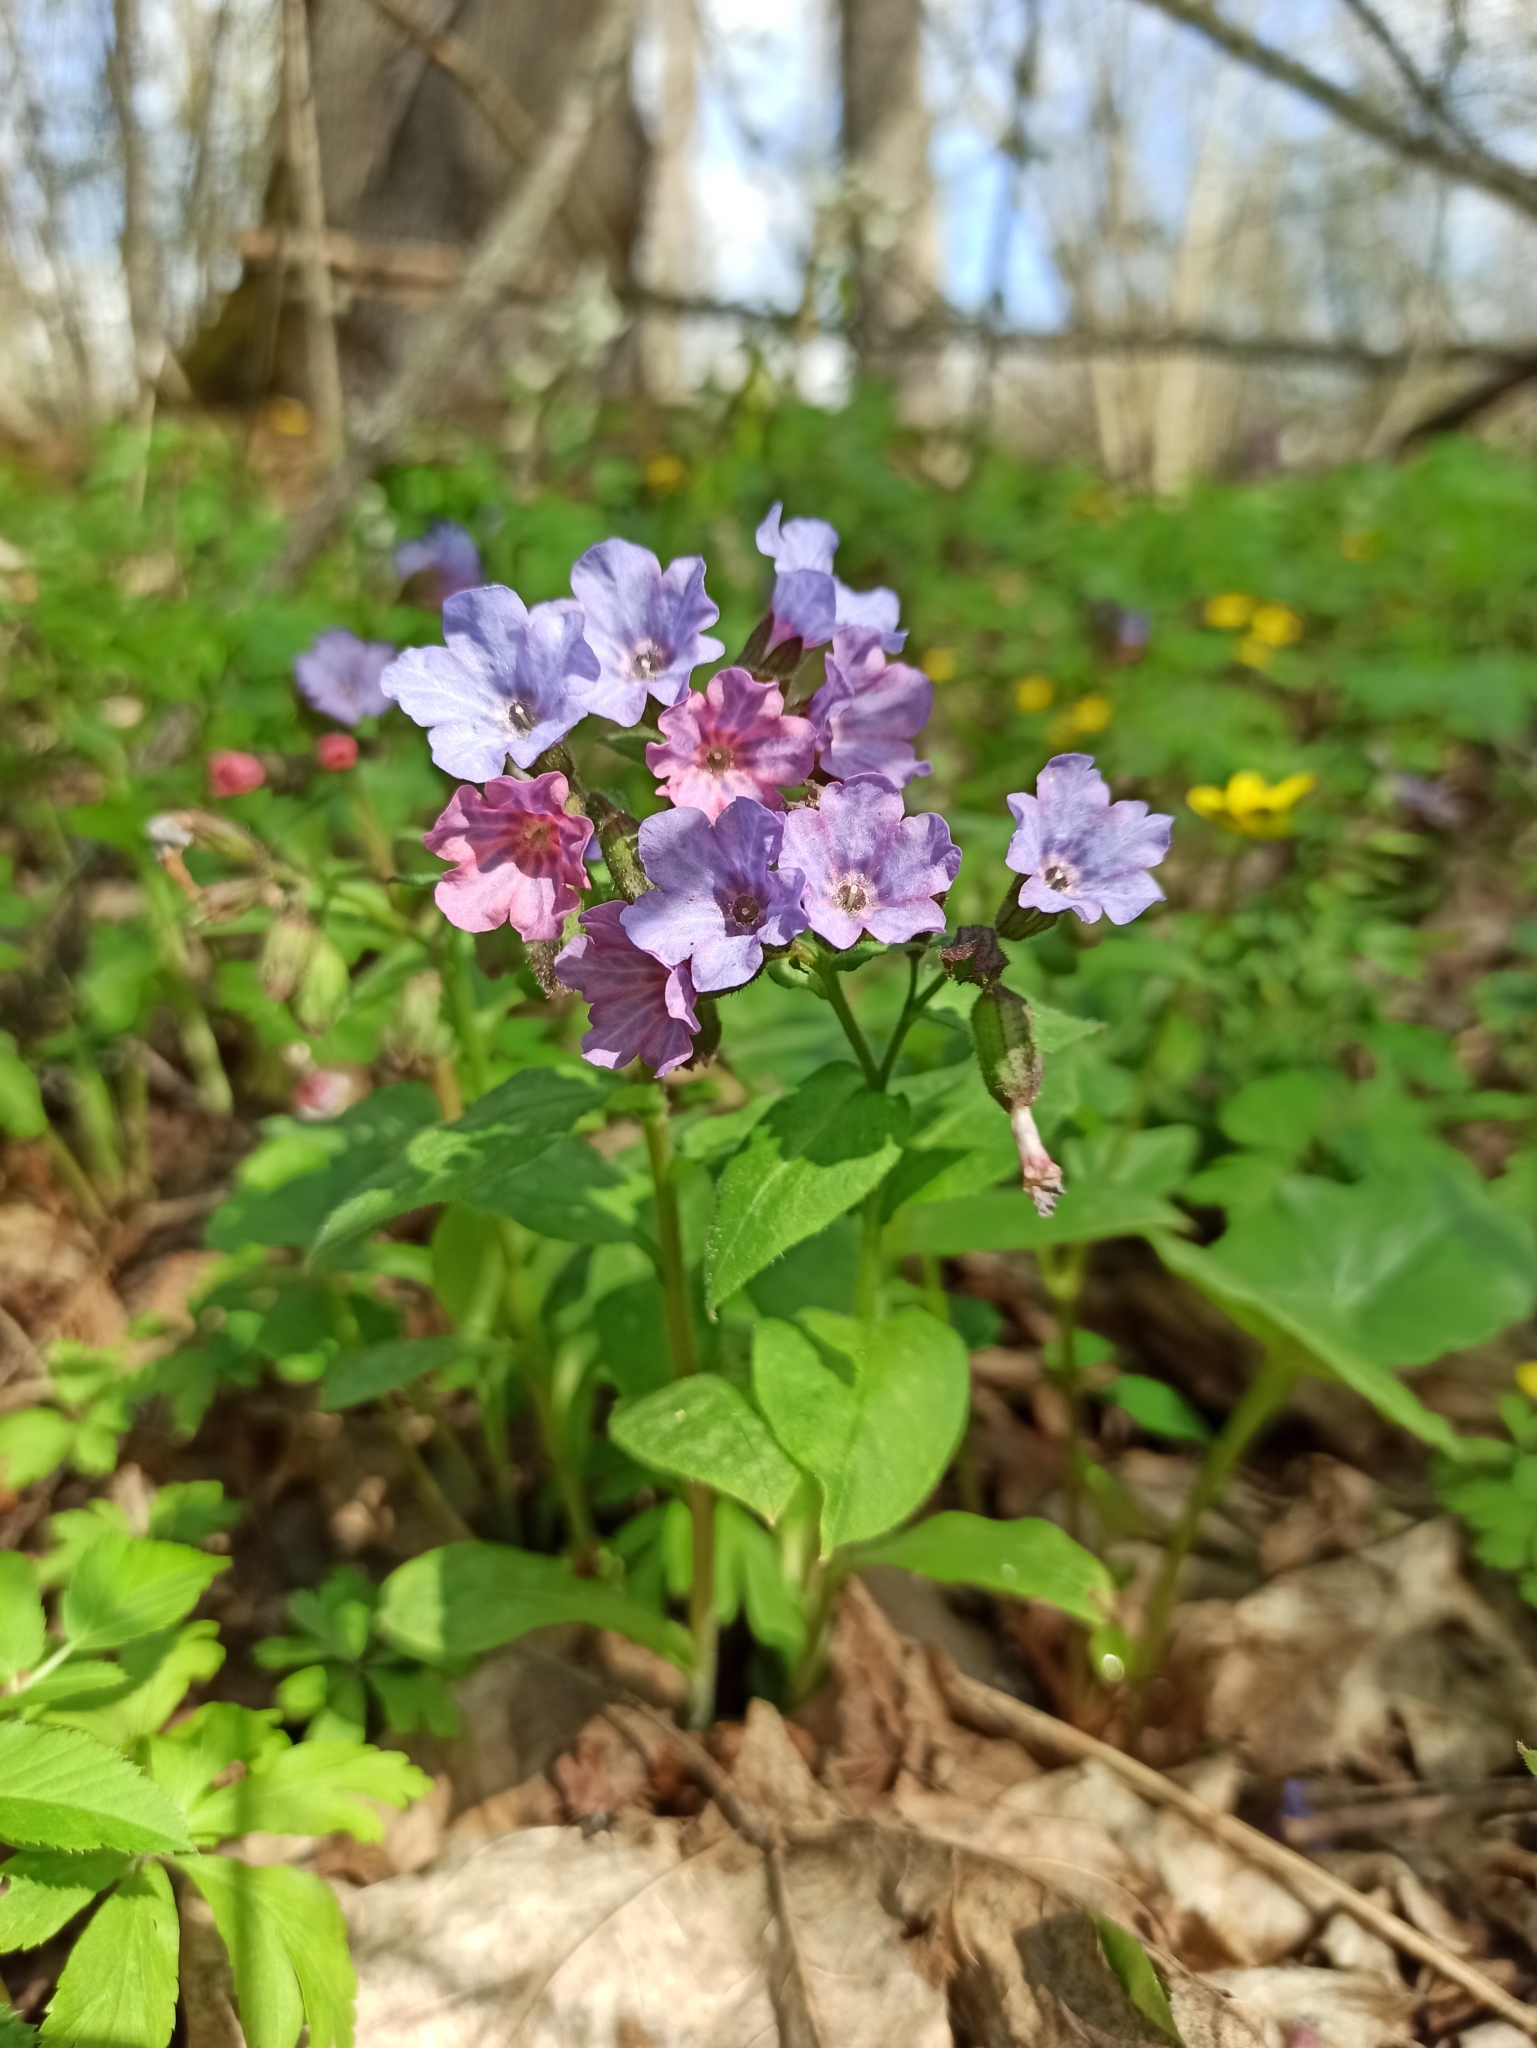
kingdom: Plantae
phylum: Tracheophyta
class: Magnoliopsida
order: Boraginales
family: Boraginaceae
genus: Pulmonaria
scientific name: Pulmonaria obscura
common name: Suffolk lungwort
